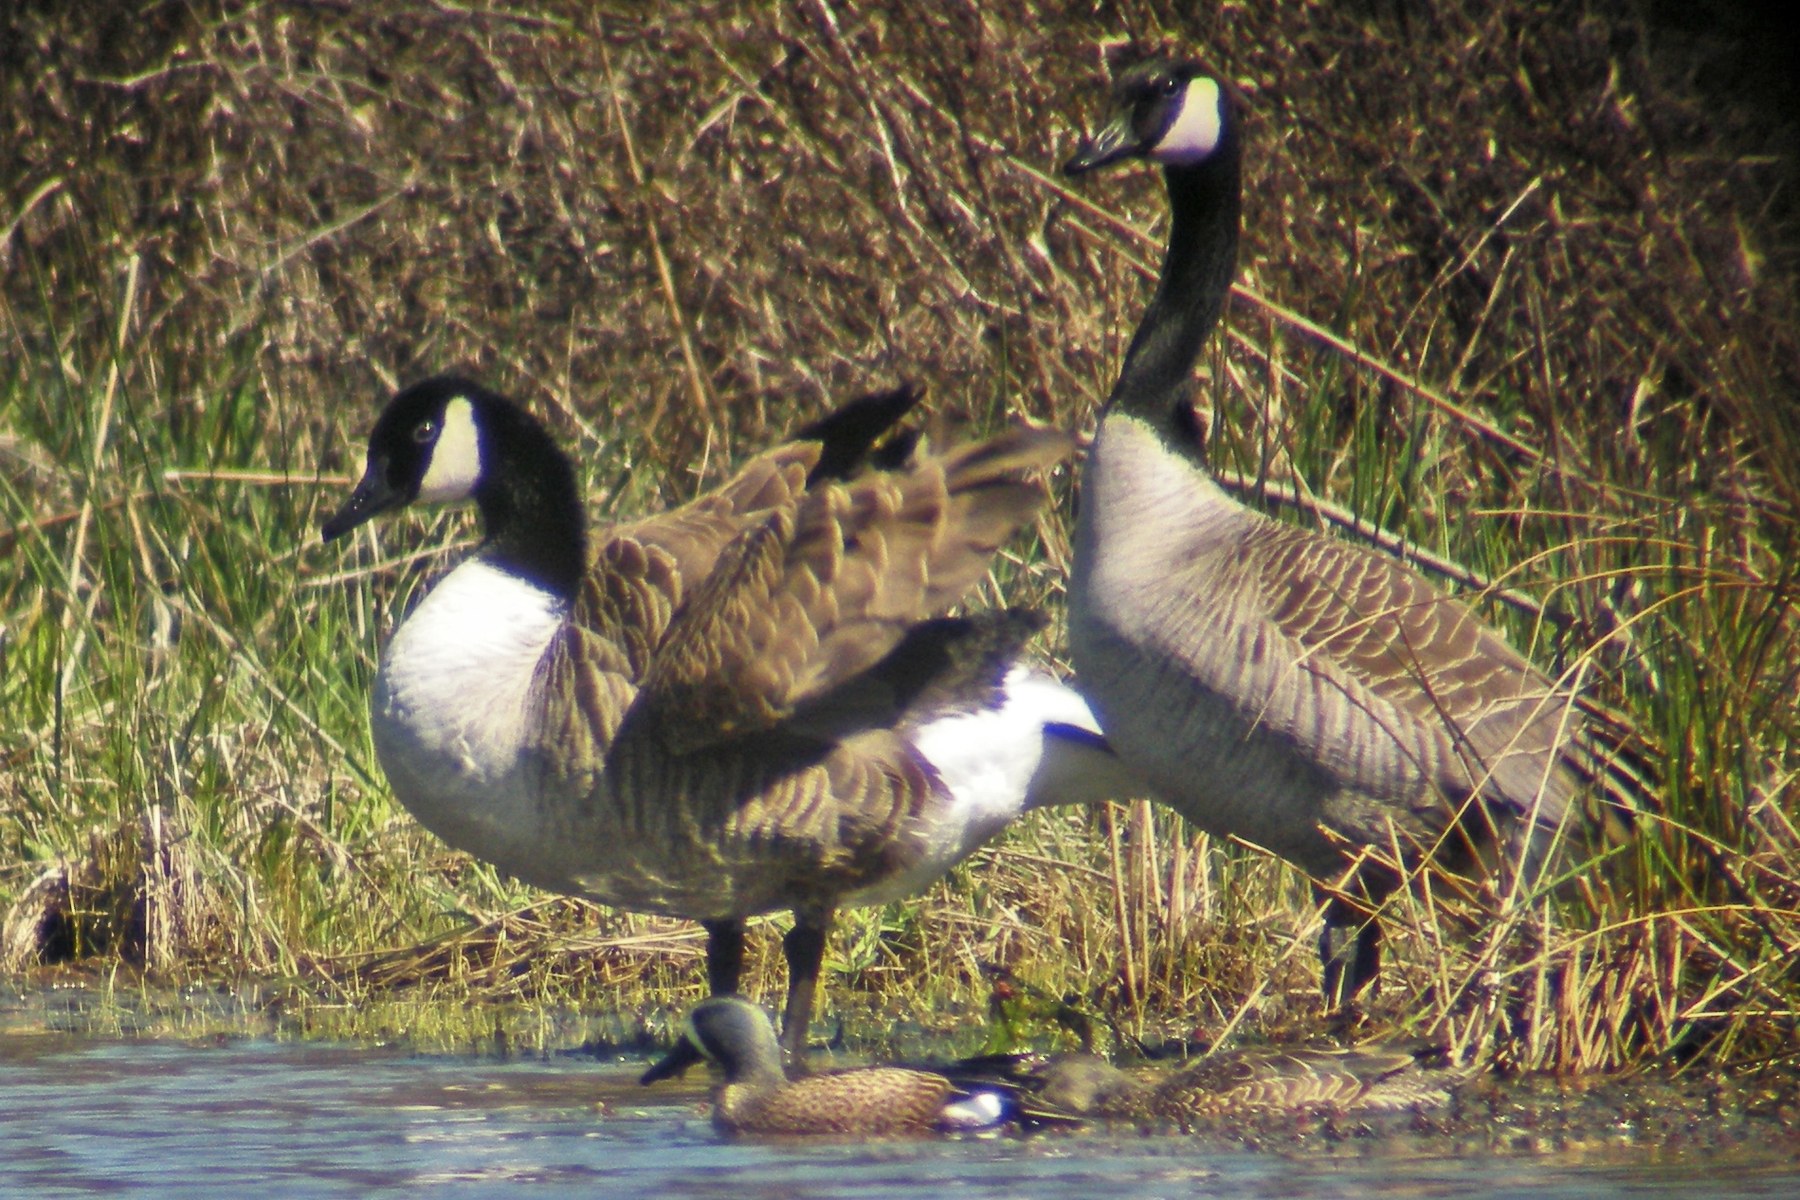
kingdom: Animalia
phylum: Chordata
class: Aves
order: Anseriformes
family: Anatidae
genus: Branta
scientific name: Branta canadensis
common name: Canada goose
